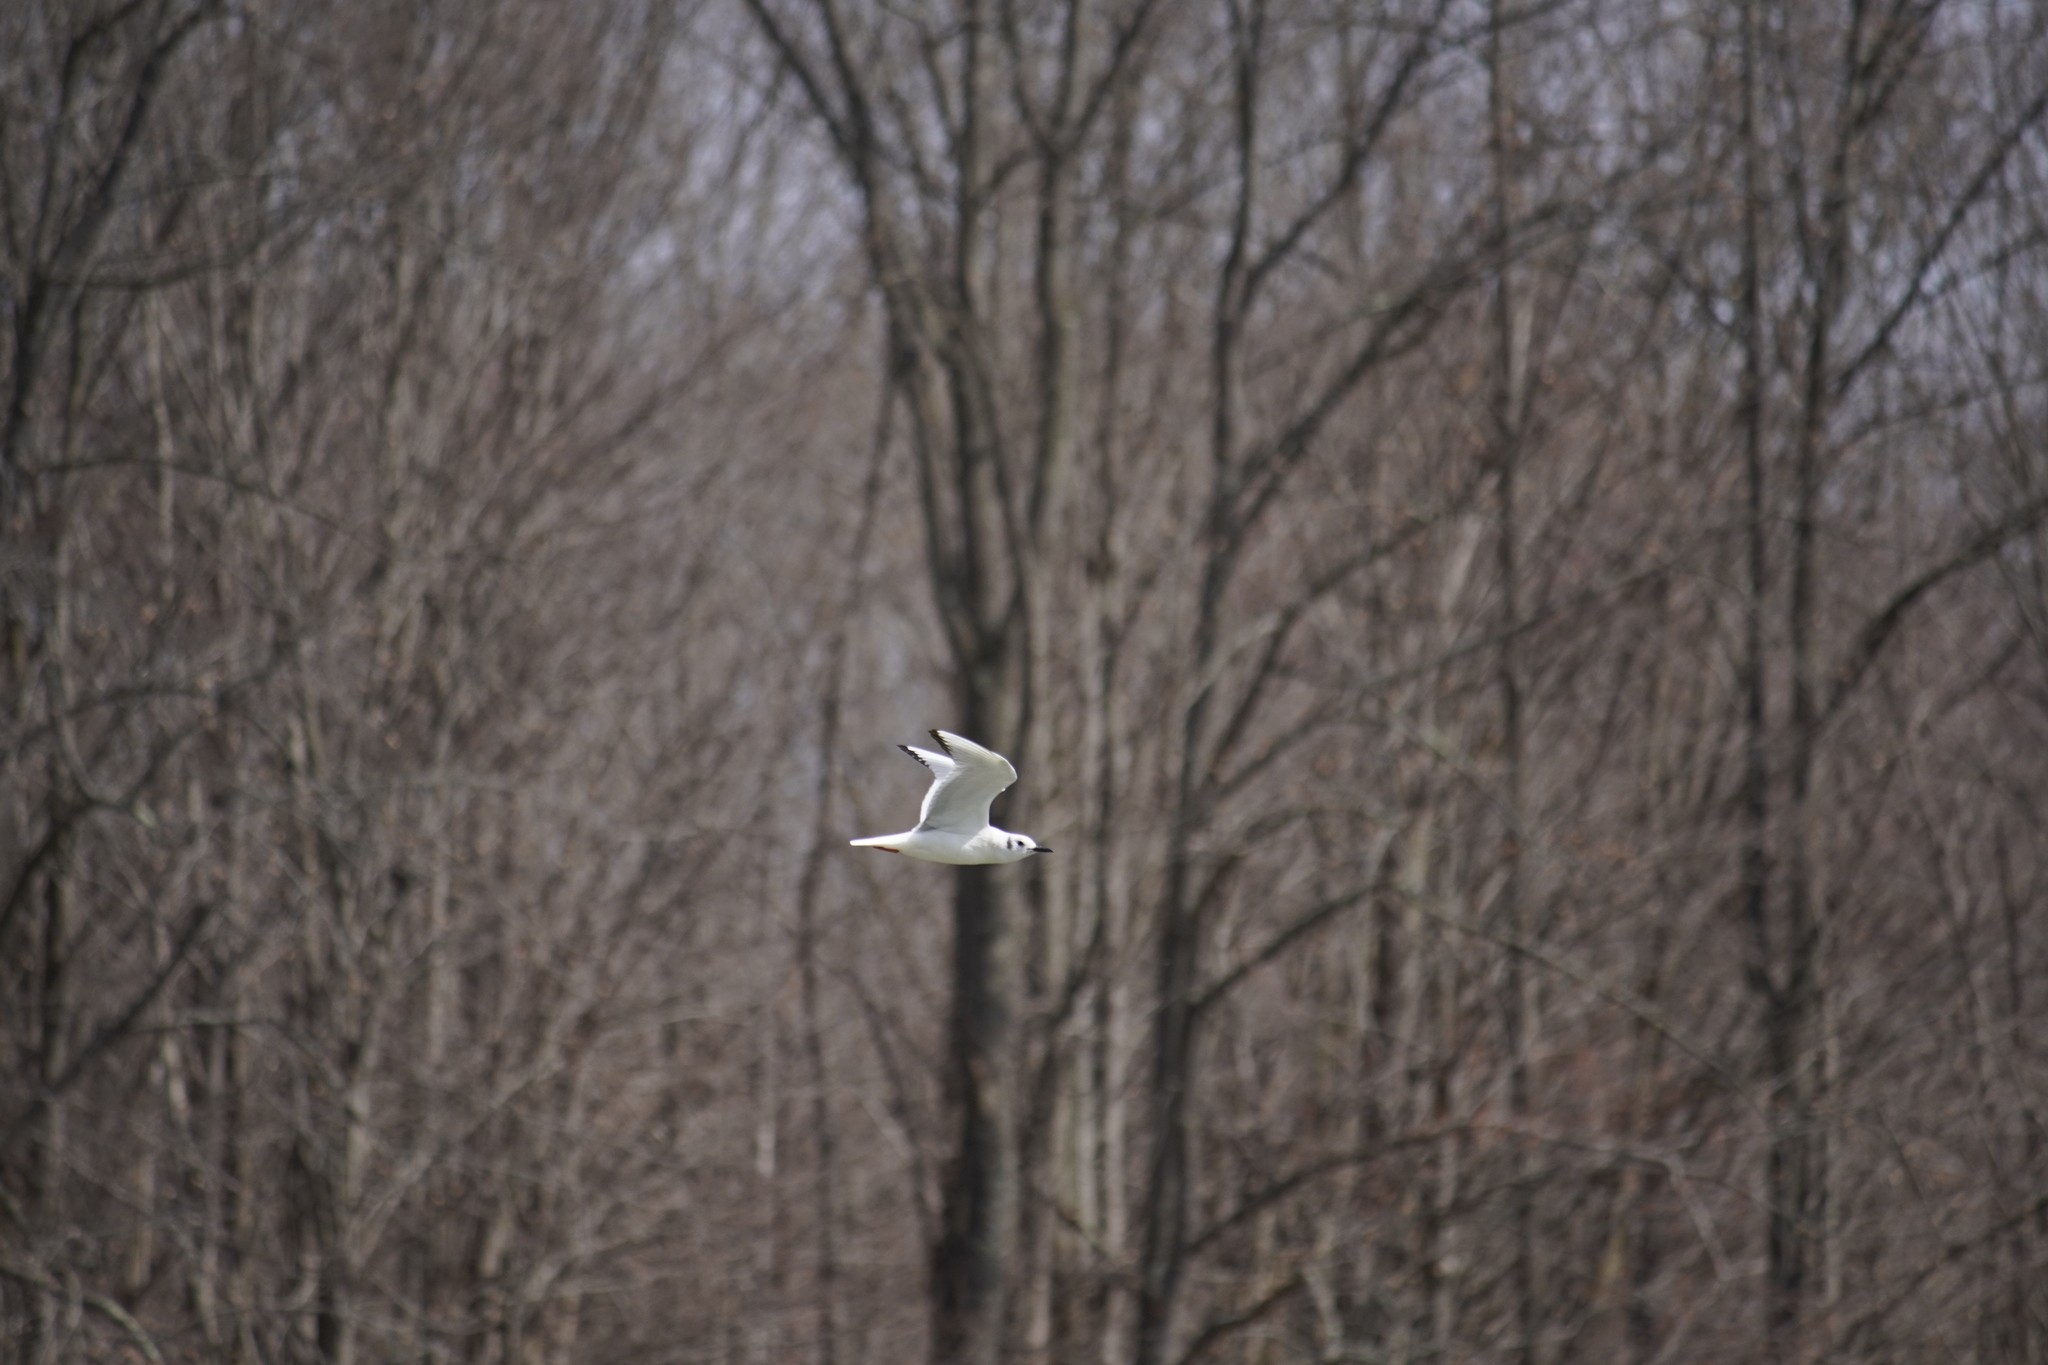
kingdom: Animalia
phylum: Chordata
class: Aves
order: Charadriiformes
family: Laridae
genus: Chroicocephalus
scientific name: Chroicocephalus philadelphia
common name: Bonaparte's gull
